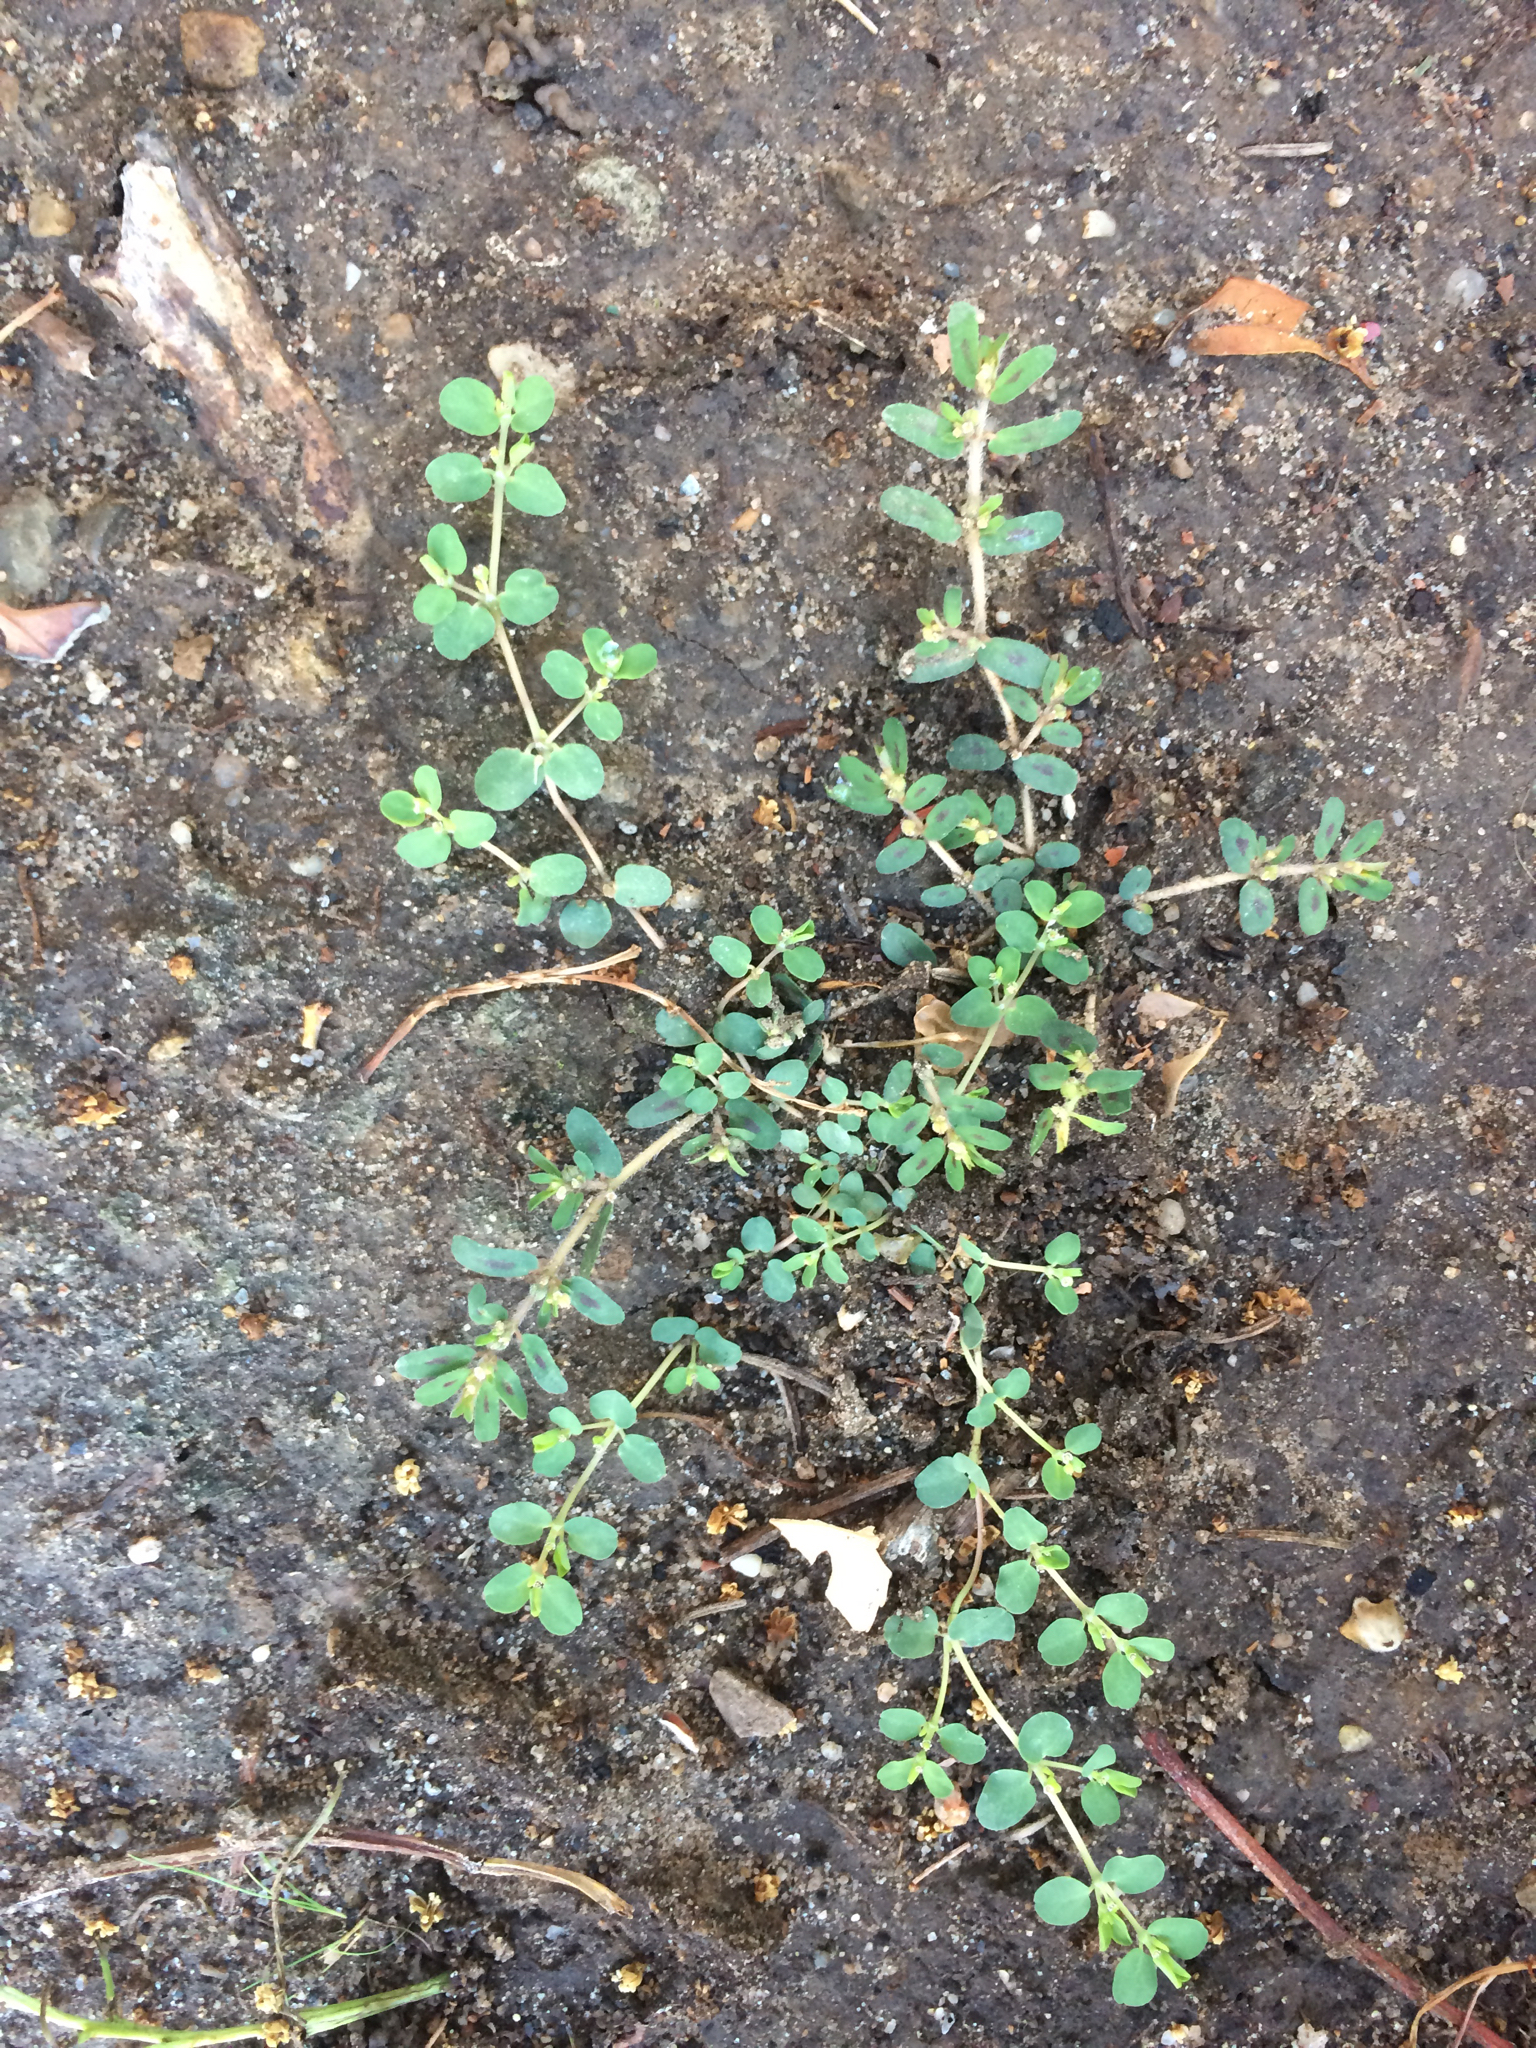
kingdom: Plantae
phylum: Tracheophyta
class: Magnoliopsida
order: Malpighiales
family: Euphorbiaceae
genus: Euphorbia
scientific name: Euphorbia maculata
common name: Spotted spurge
